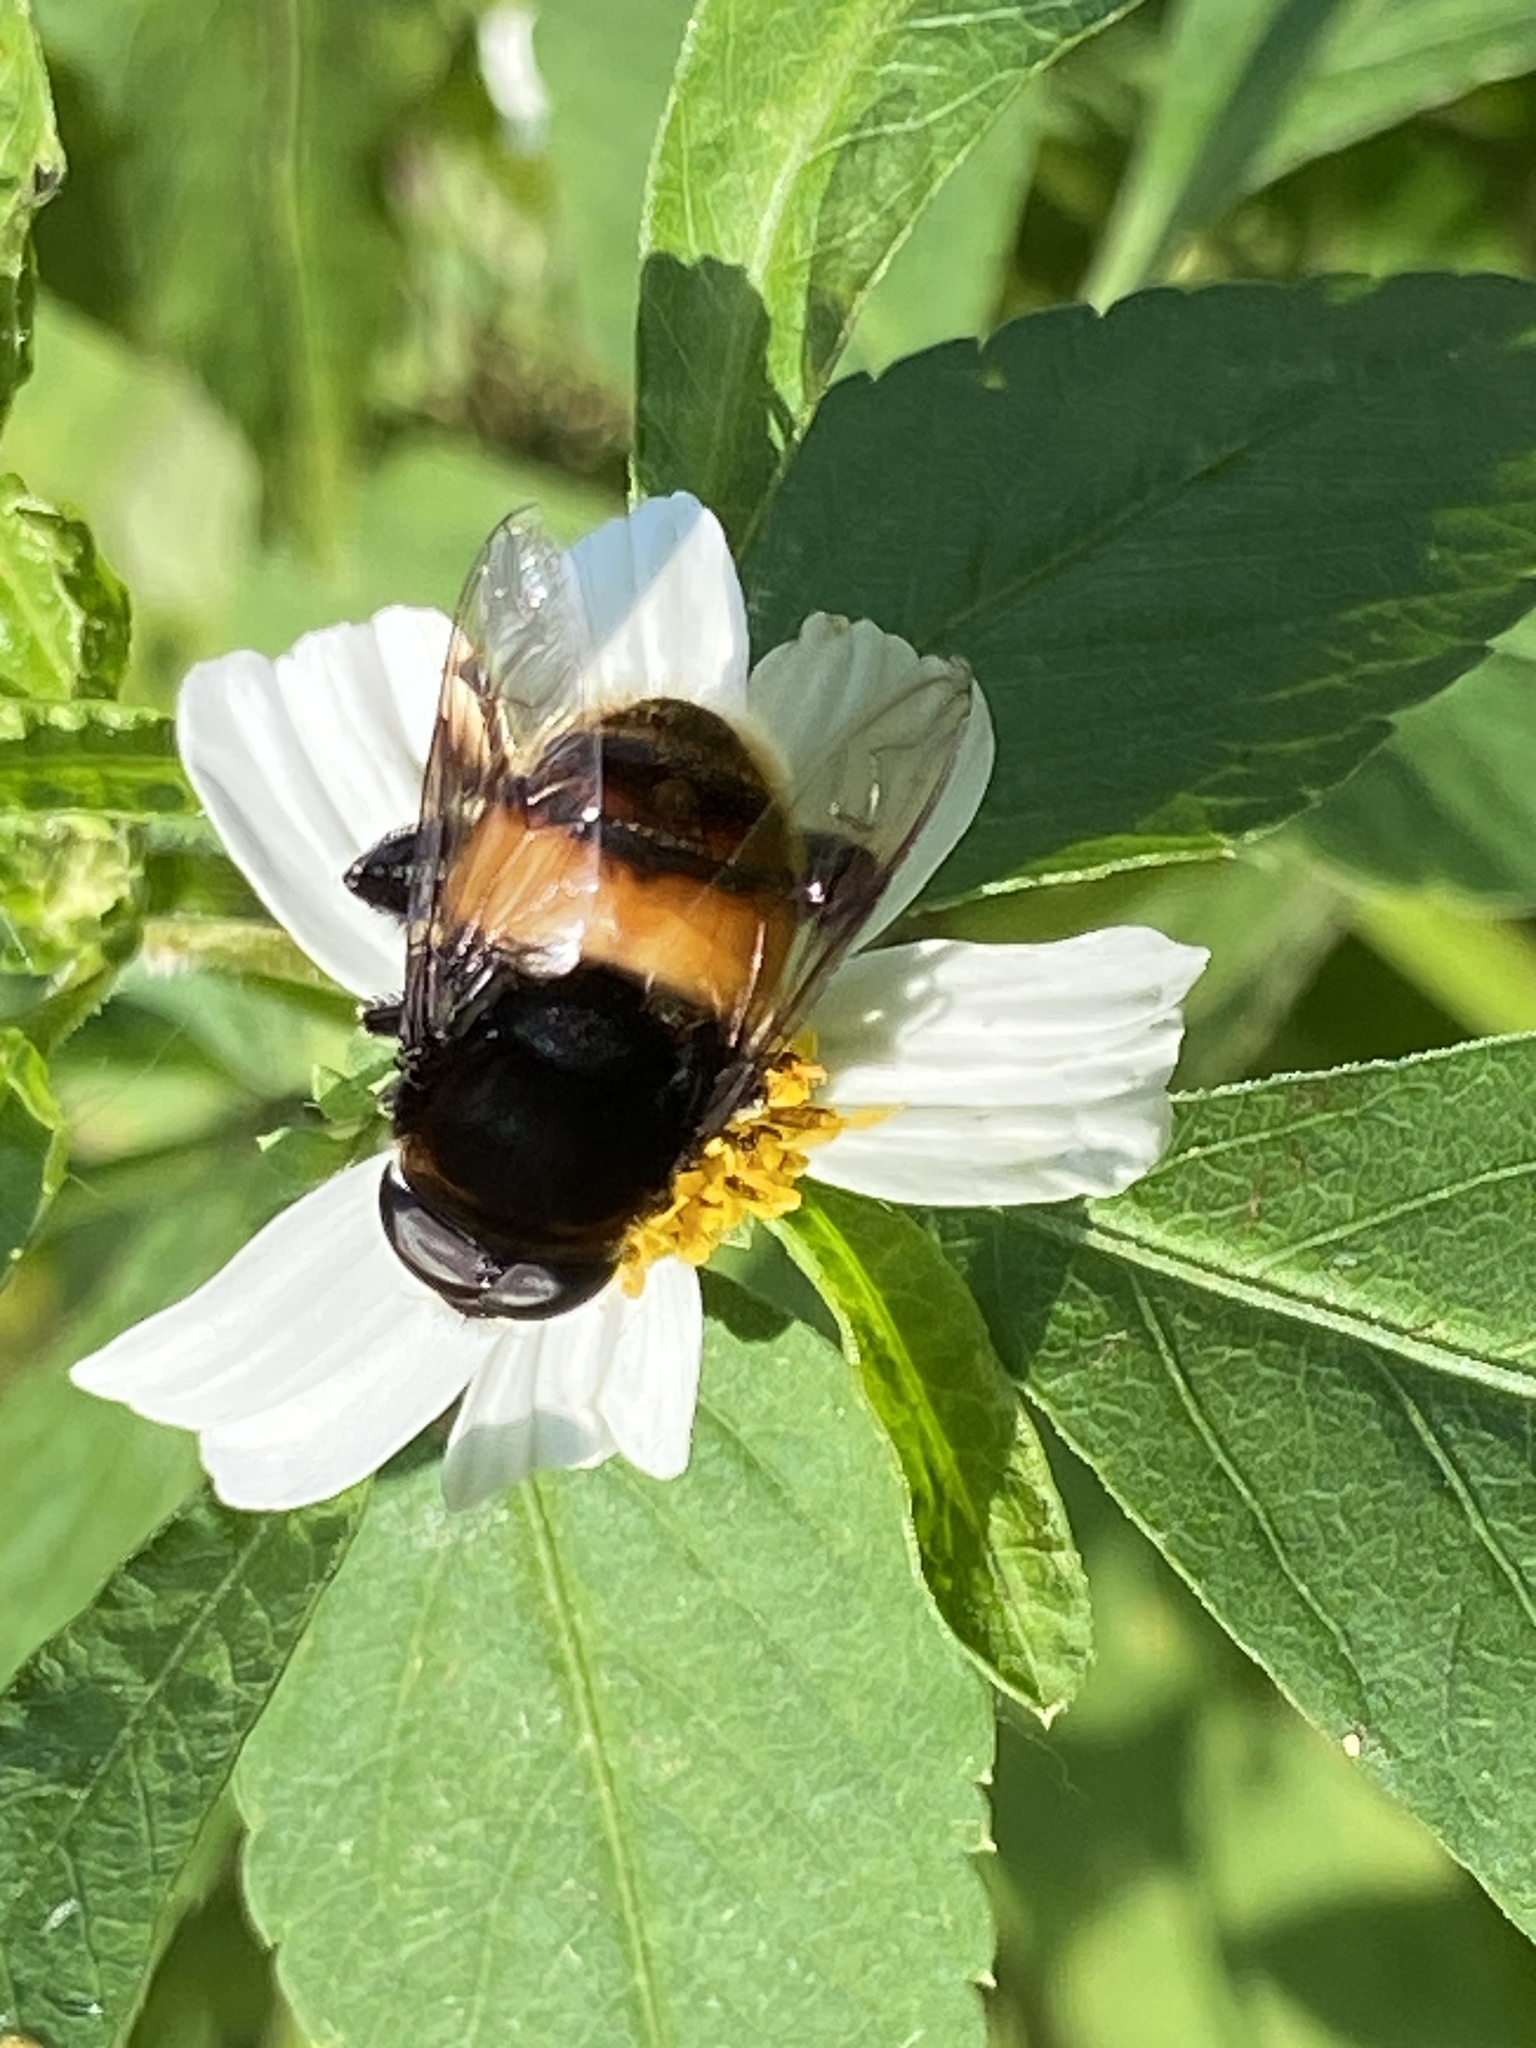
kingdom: Animalia
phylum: Arthropoda
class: Insecta
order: Diptera
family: Syrphidae
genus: Phytomia
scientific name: Phytomia zonata
